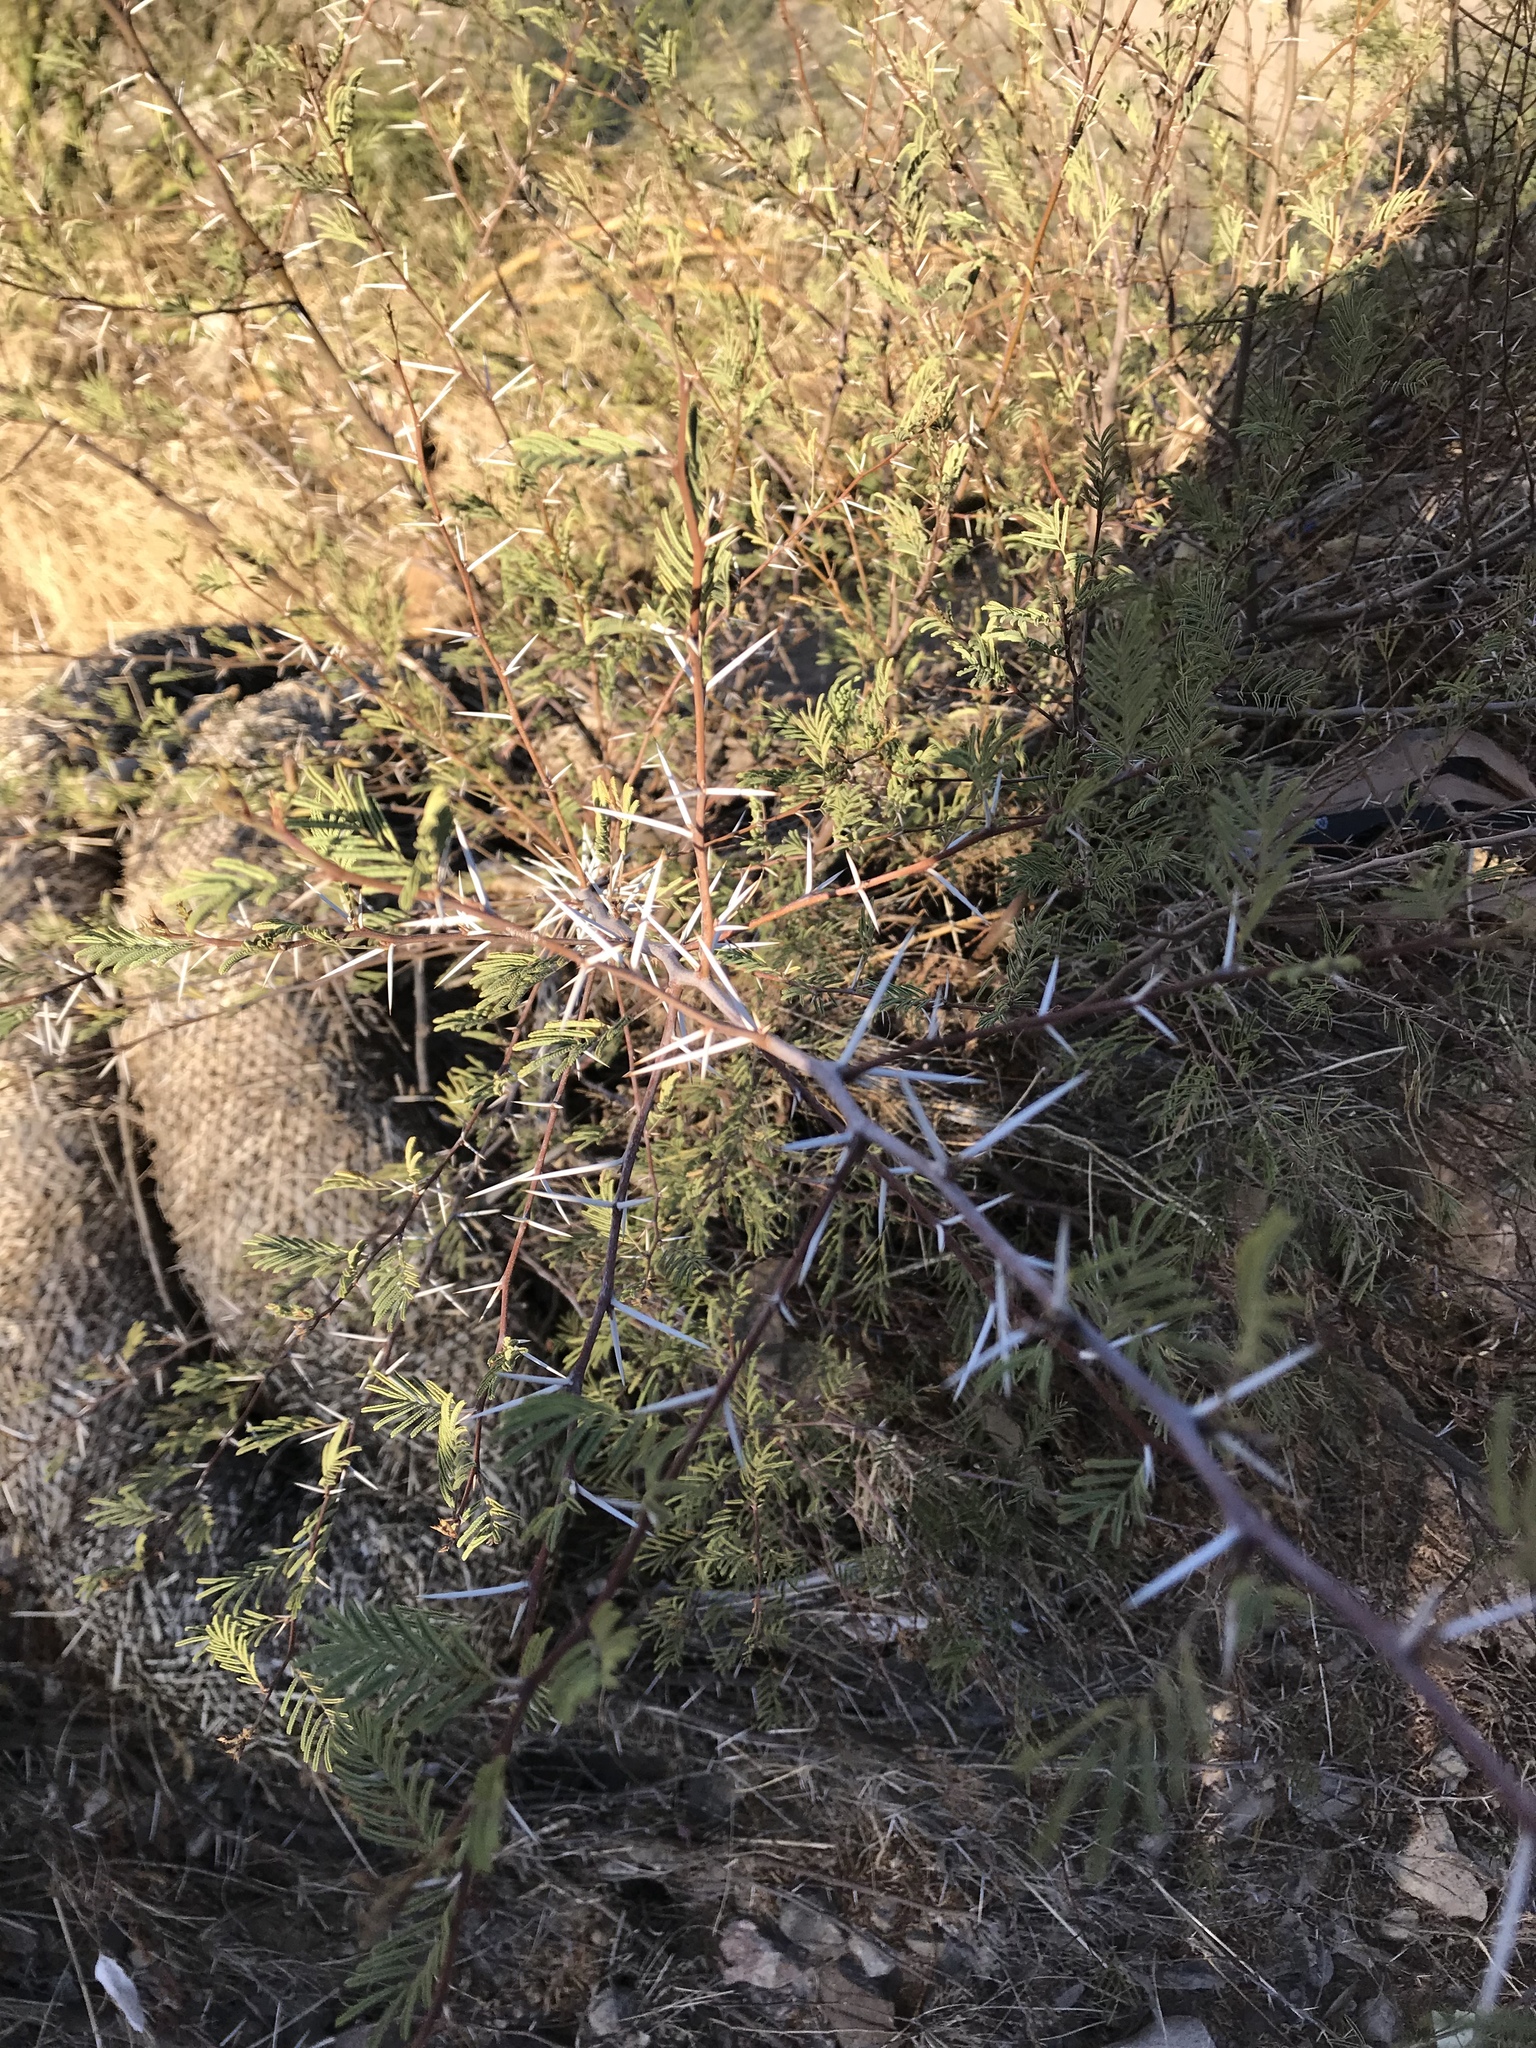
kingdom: Plantae
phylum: Tracheophyta
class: Magnoliopsida
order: Fabales
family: Fabaceae
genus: Vachellia
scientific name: Vachellia constricta
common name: Mescat acacia
